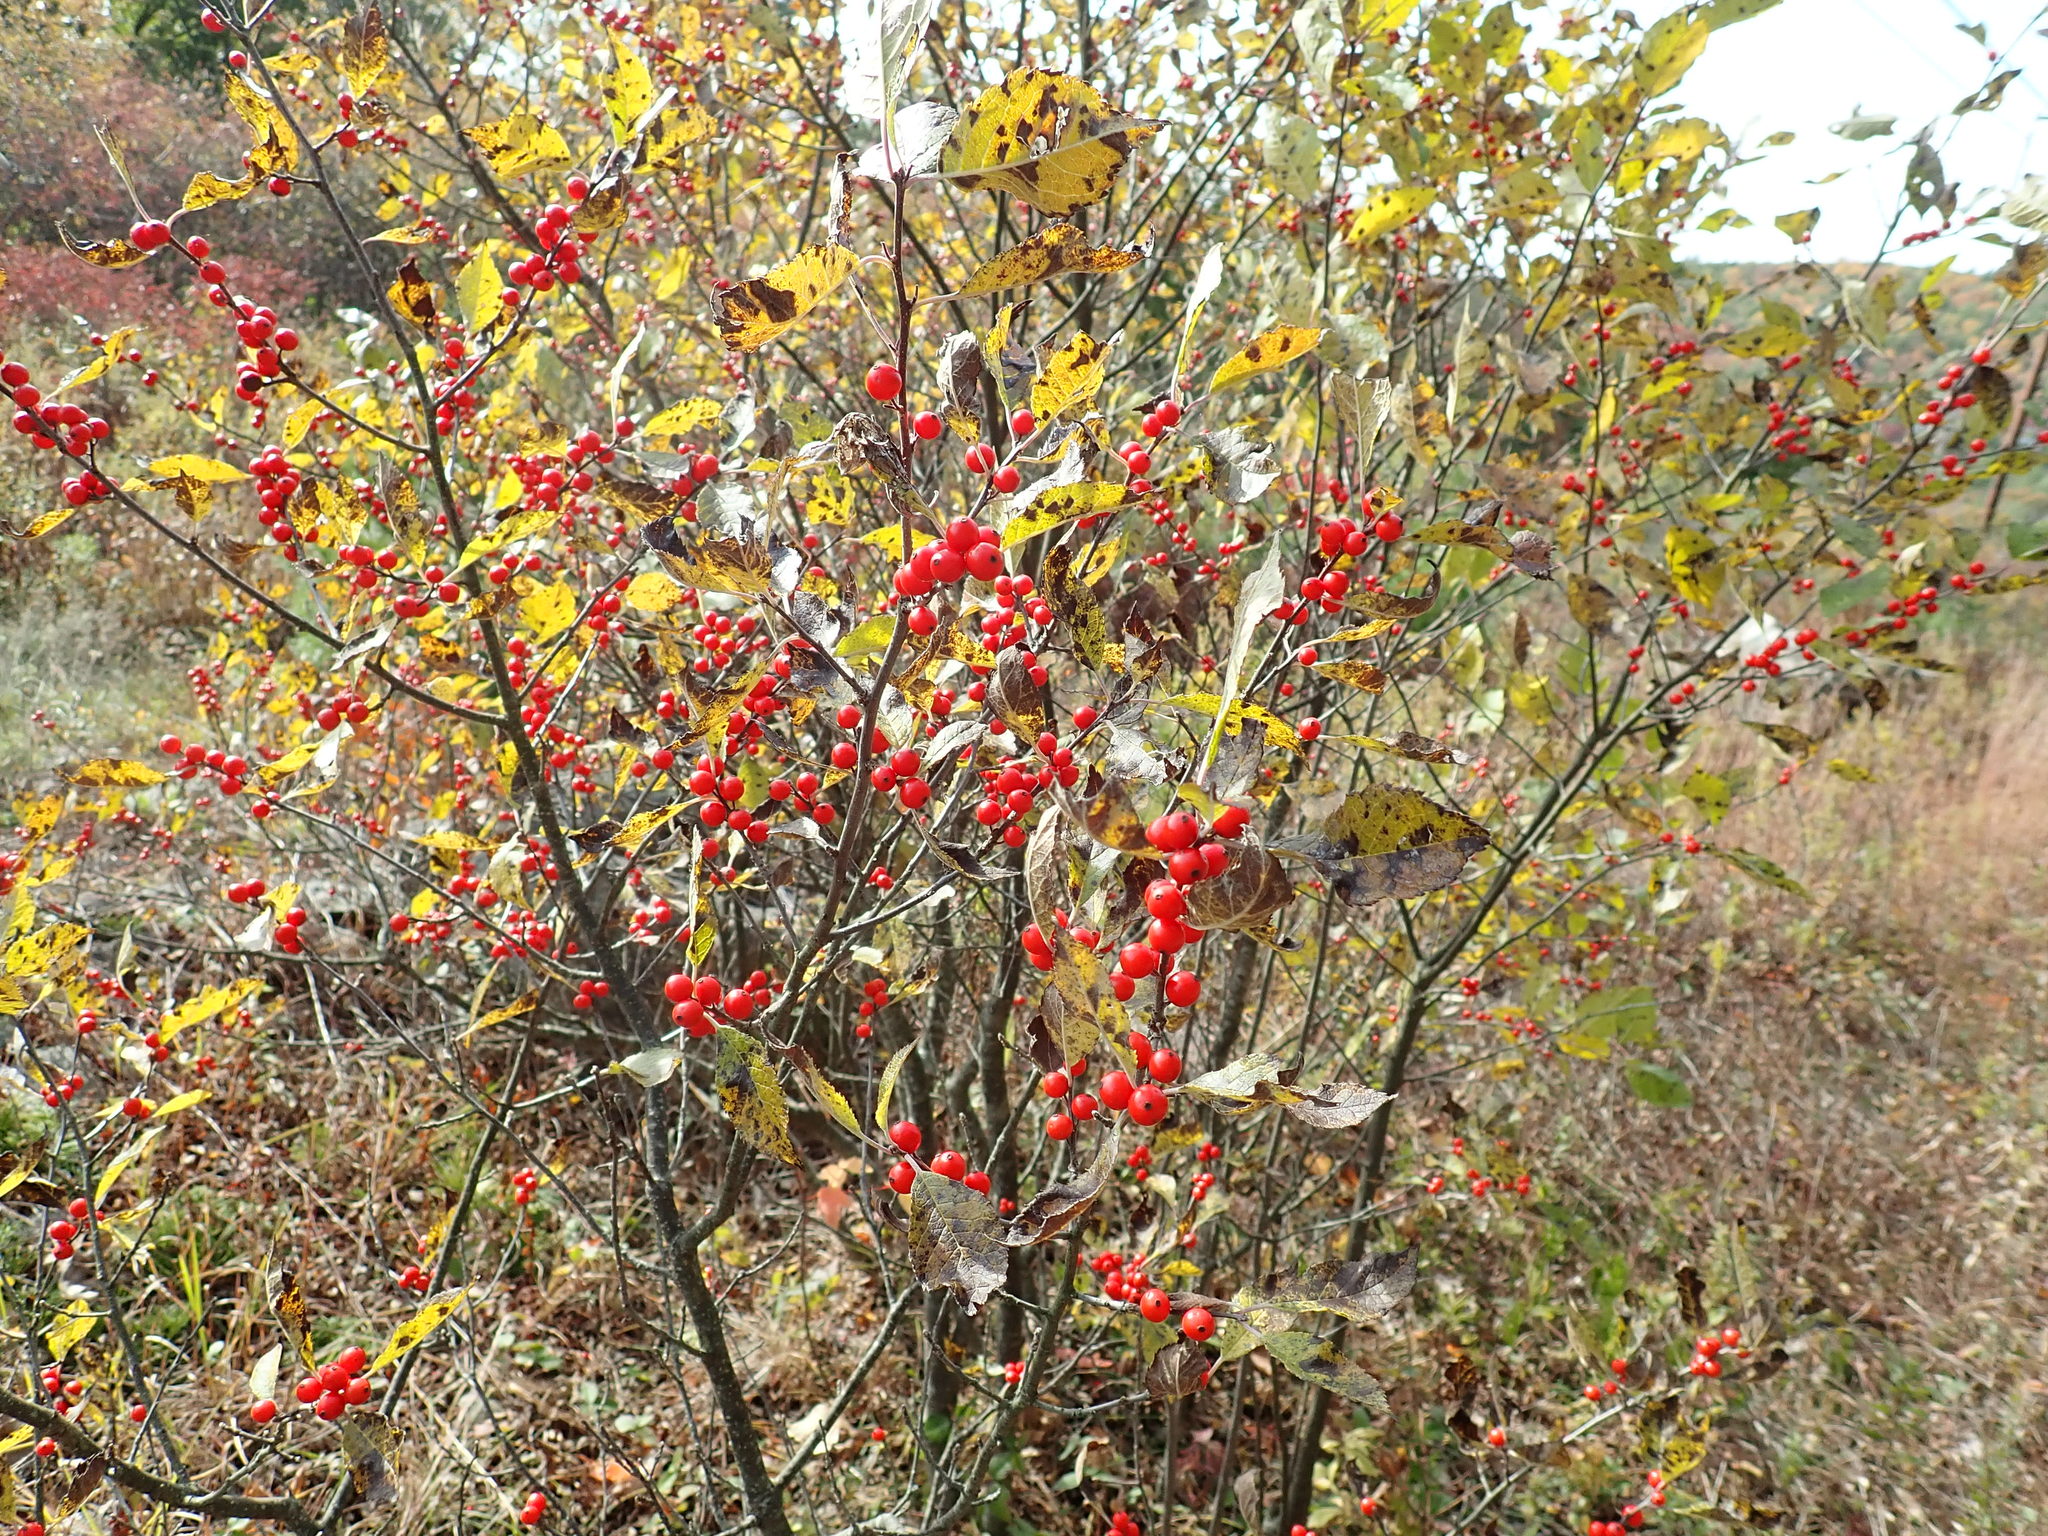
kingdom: Plantae
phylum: Tracheophyta
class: Magnoliopsida
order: Aquifoliales
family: Aquifoliaceae
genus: Ilex
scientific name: Ilex verticillata
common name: Virginia winterberry
